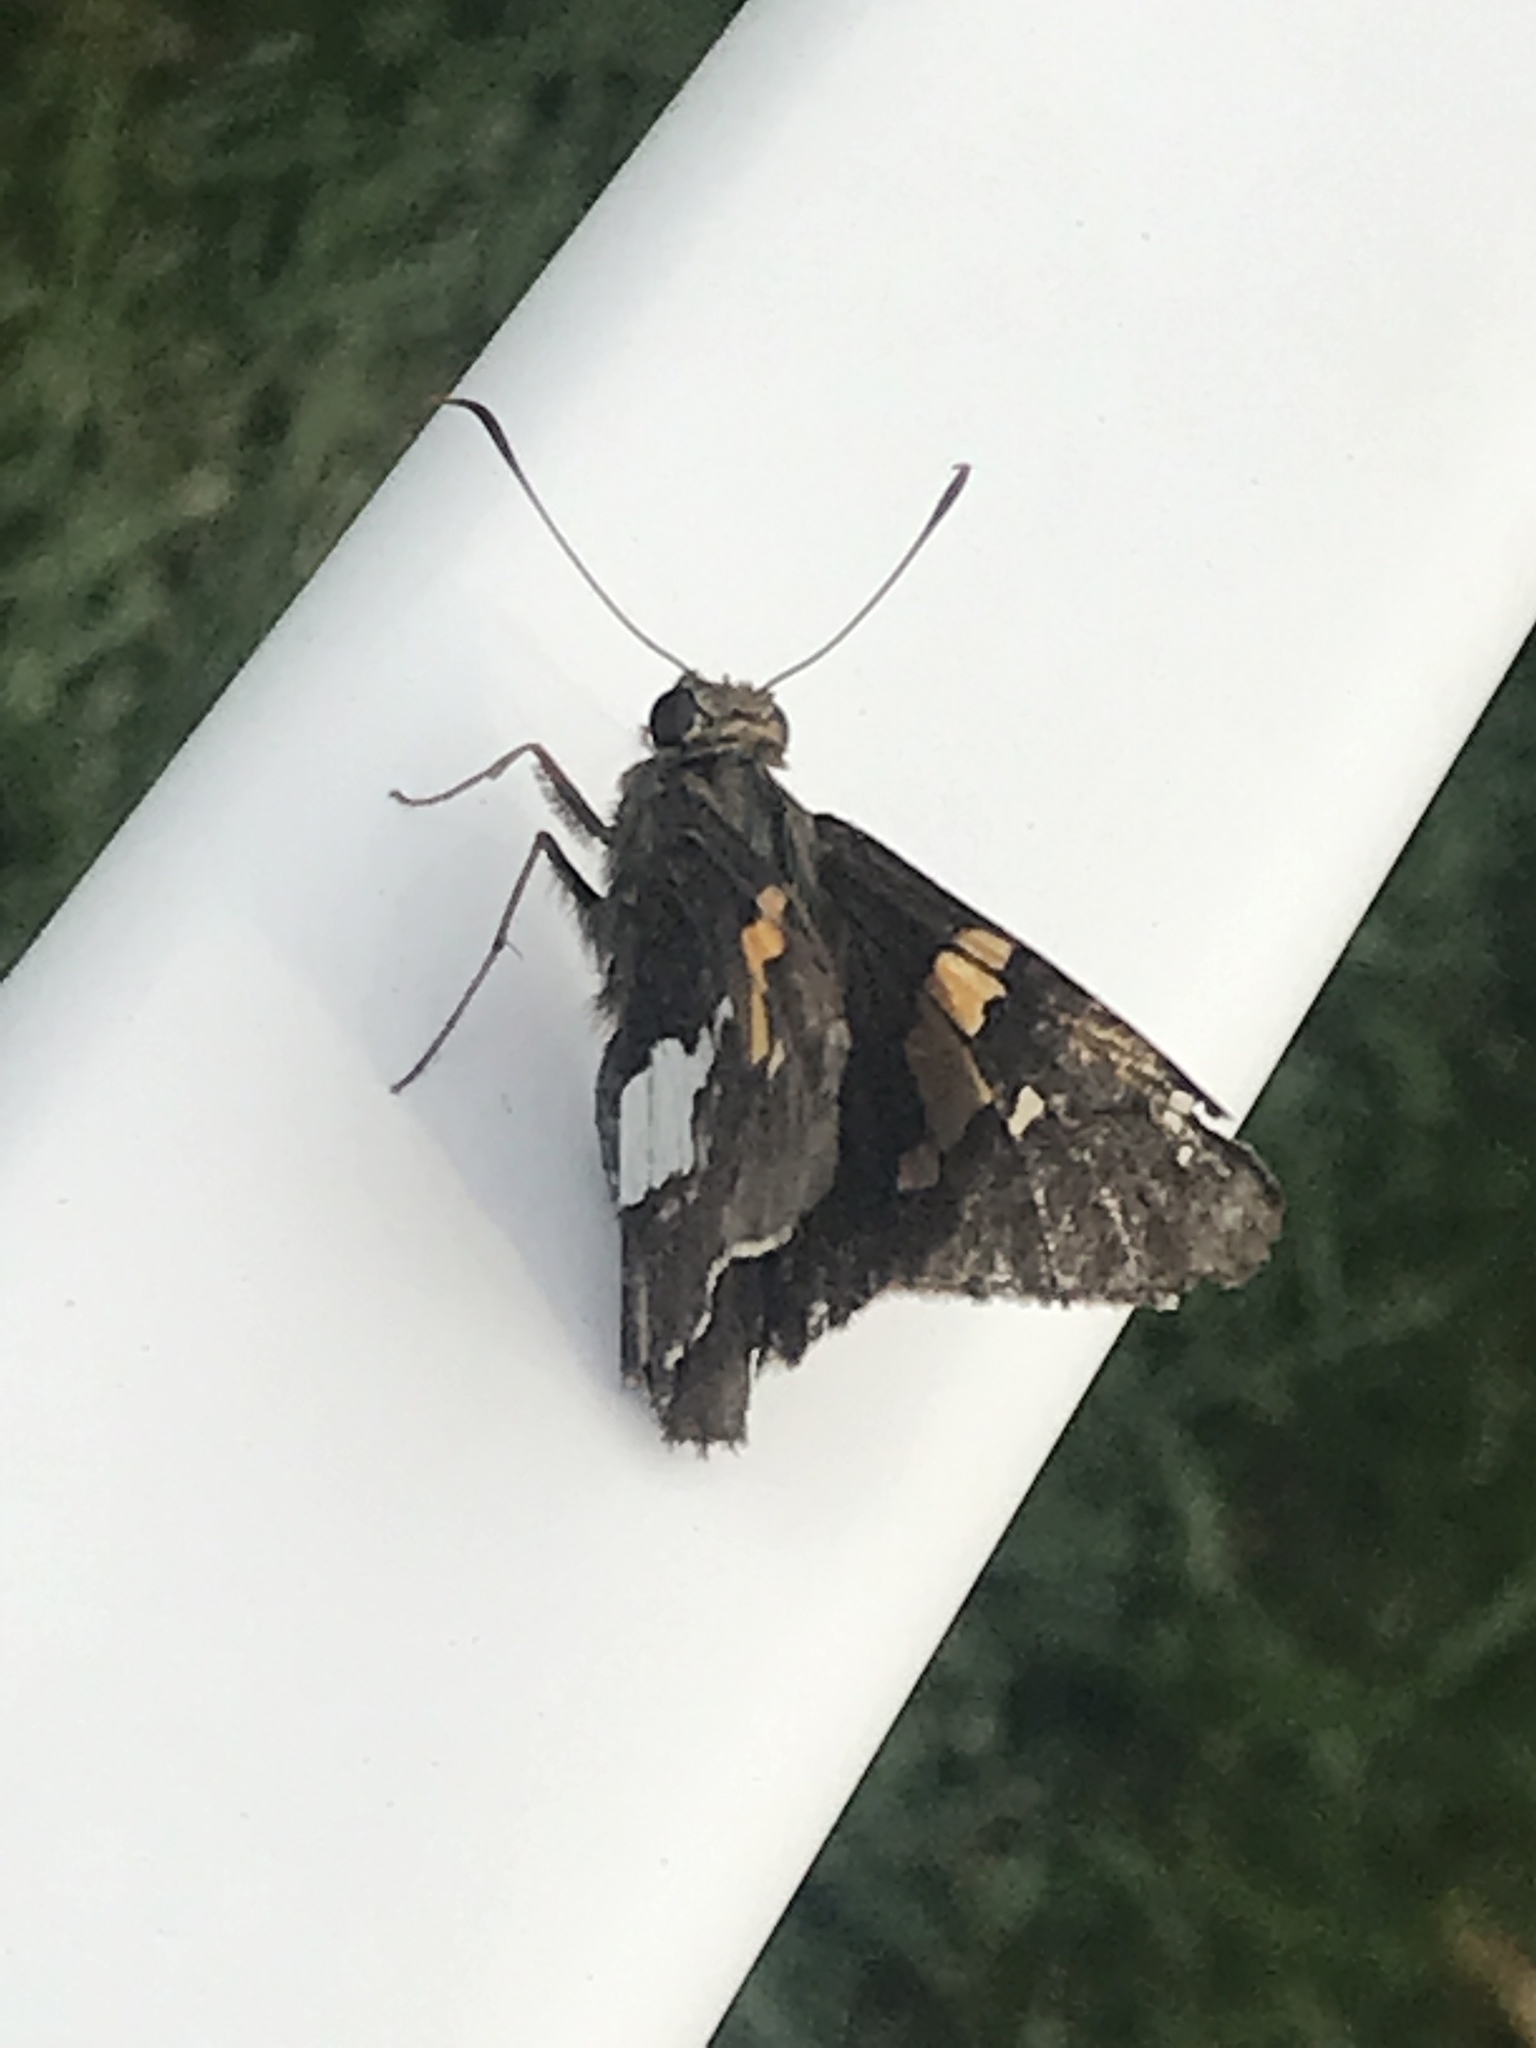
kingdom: Animalia
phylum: Arthropoda
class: Insecta
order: Lepidoptera
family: Hesperiidae
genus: Epargyreus
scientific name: Epargyreus clarus
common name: Silver-spotted skipper
